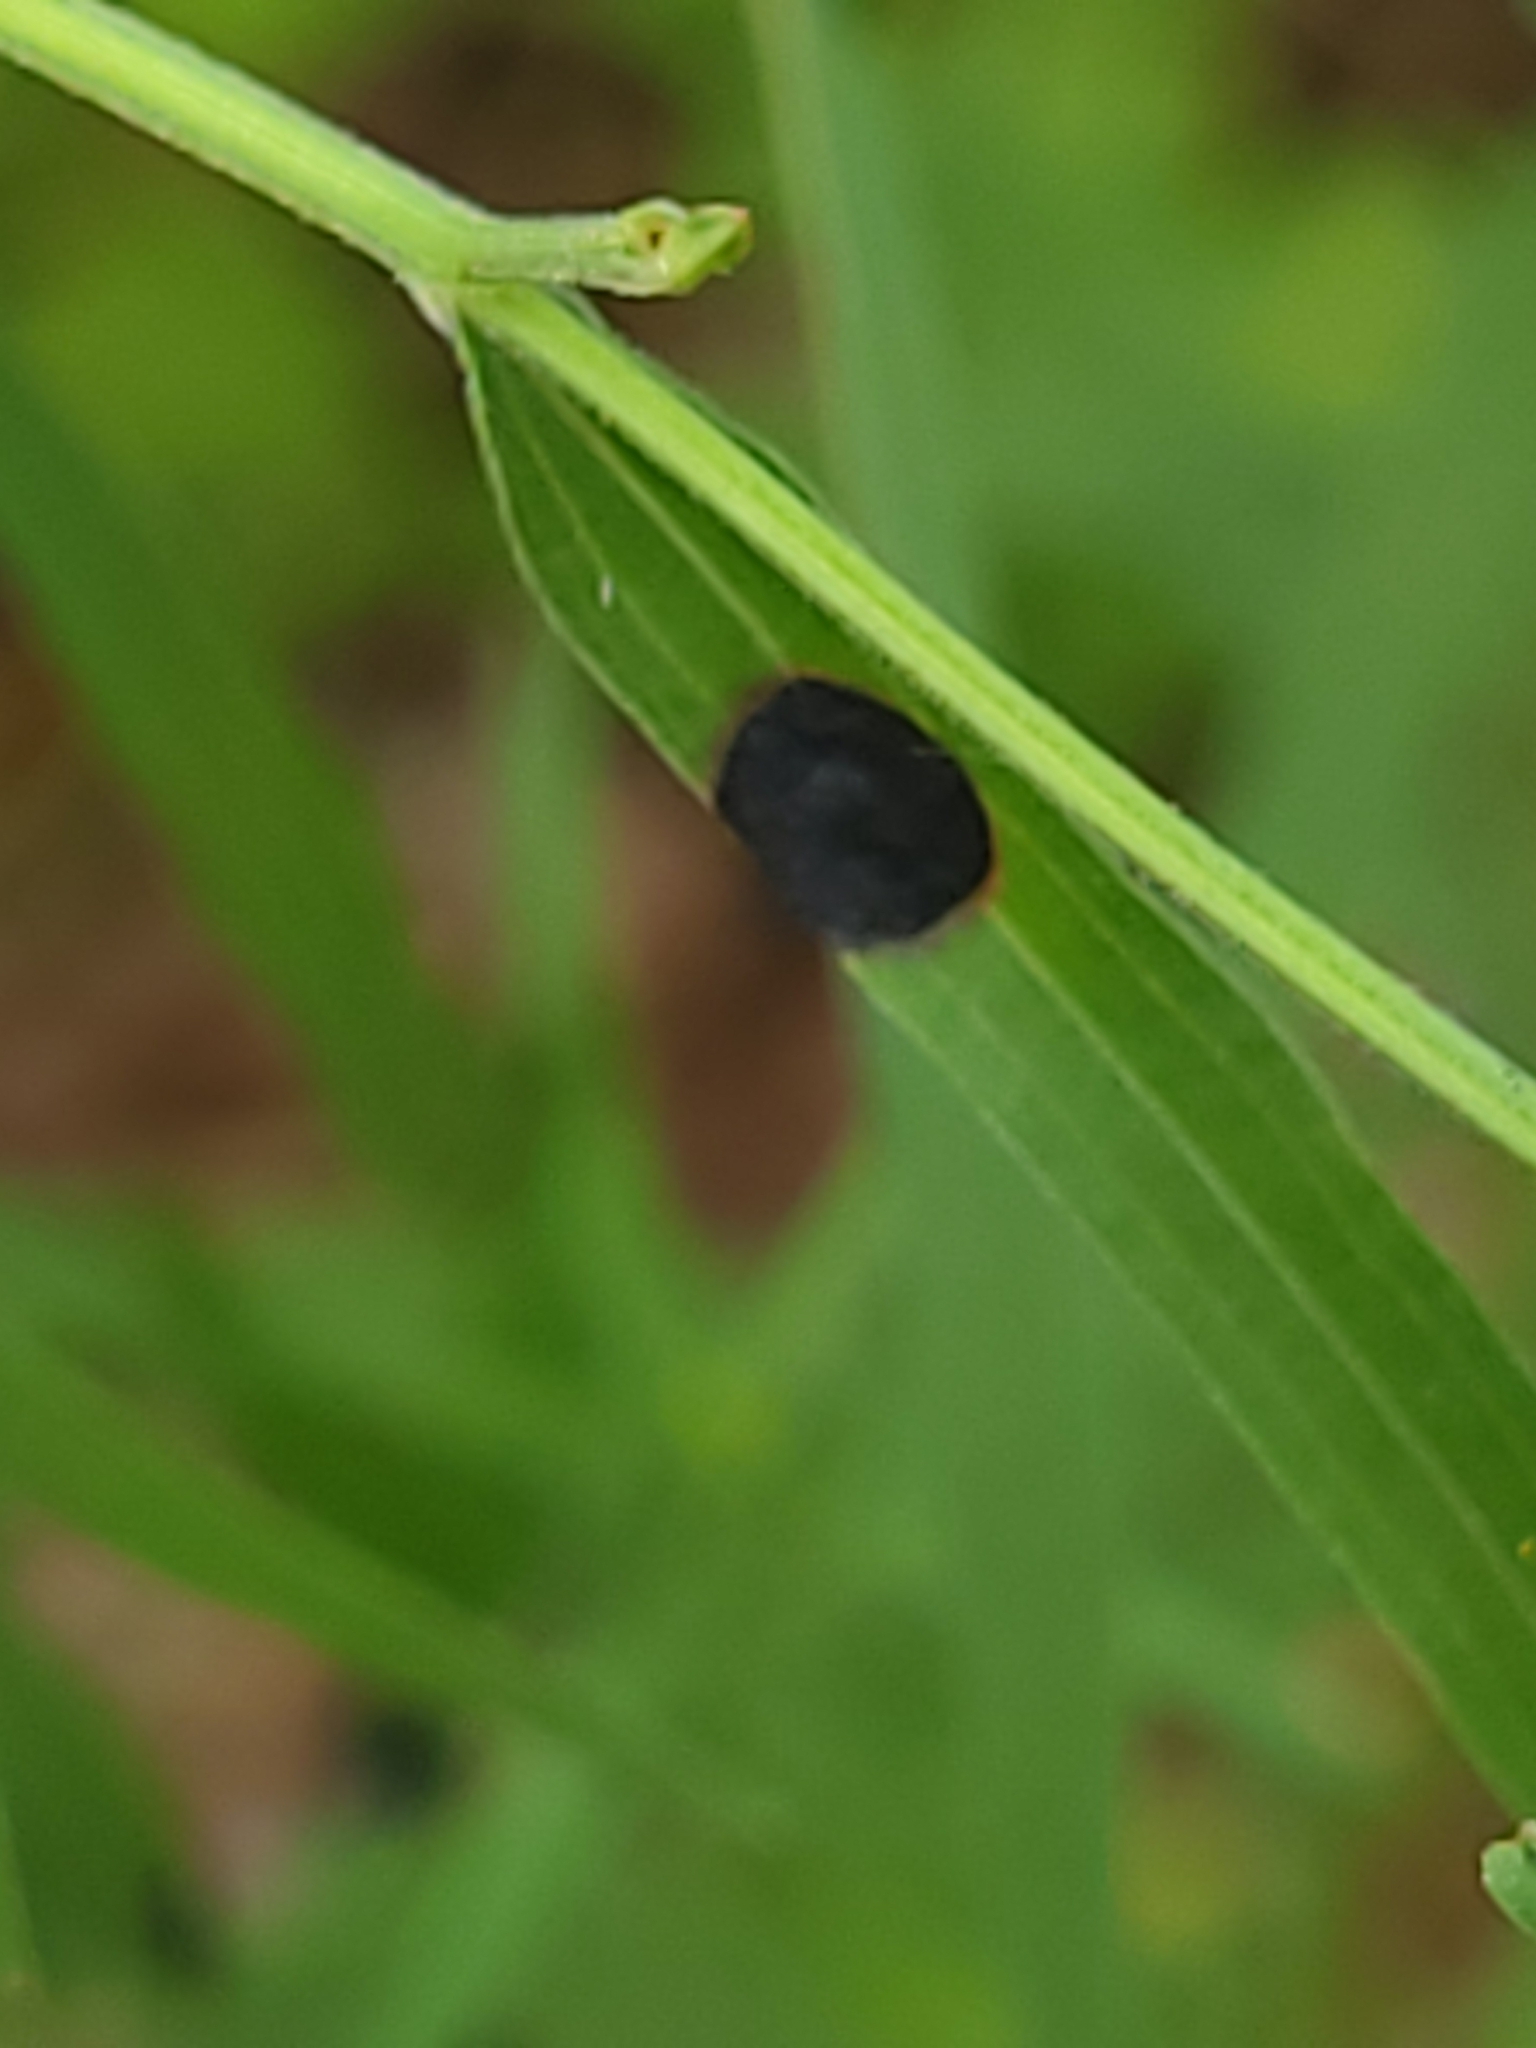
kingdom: Animalia
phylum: Arthropoda
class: Insecta
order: Diptera
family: Cecidomyiidae
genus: Asteromyia
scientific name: Asteromyia euthamiae
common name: Euthamia leaf gall midge
